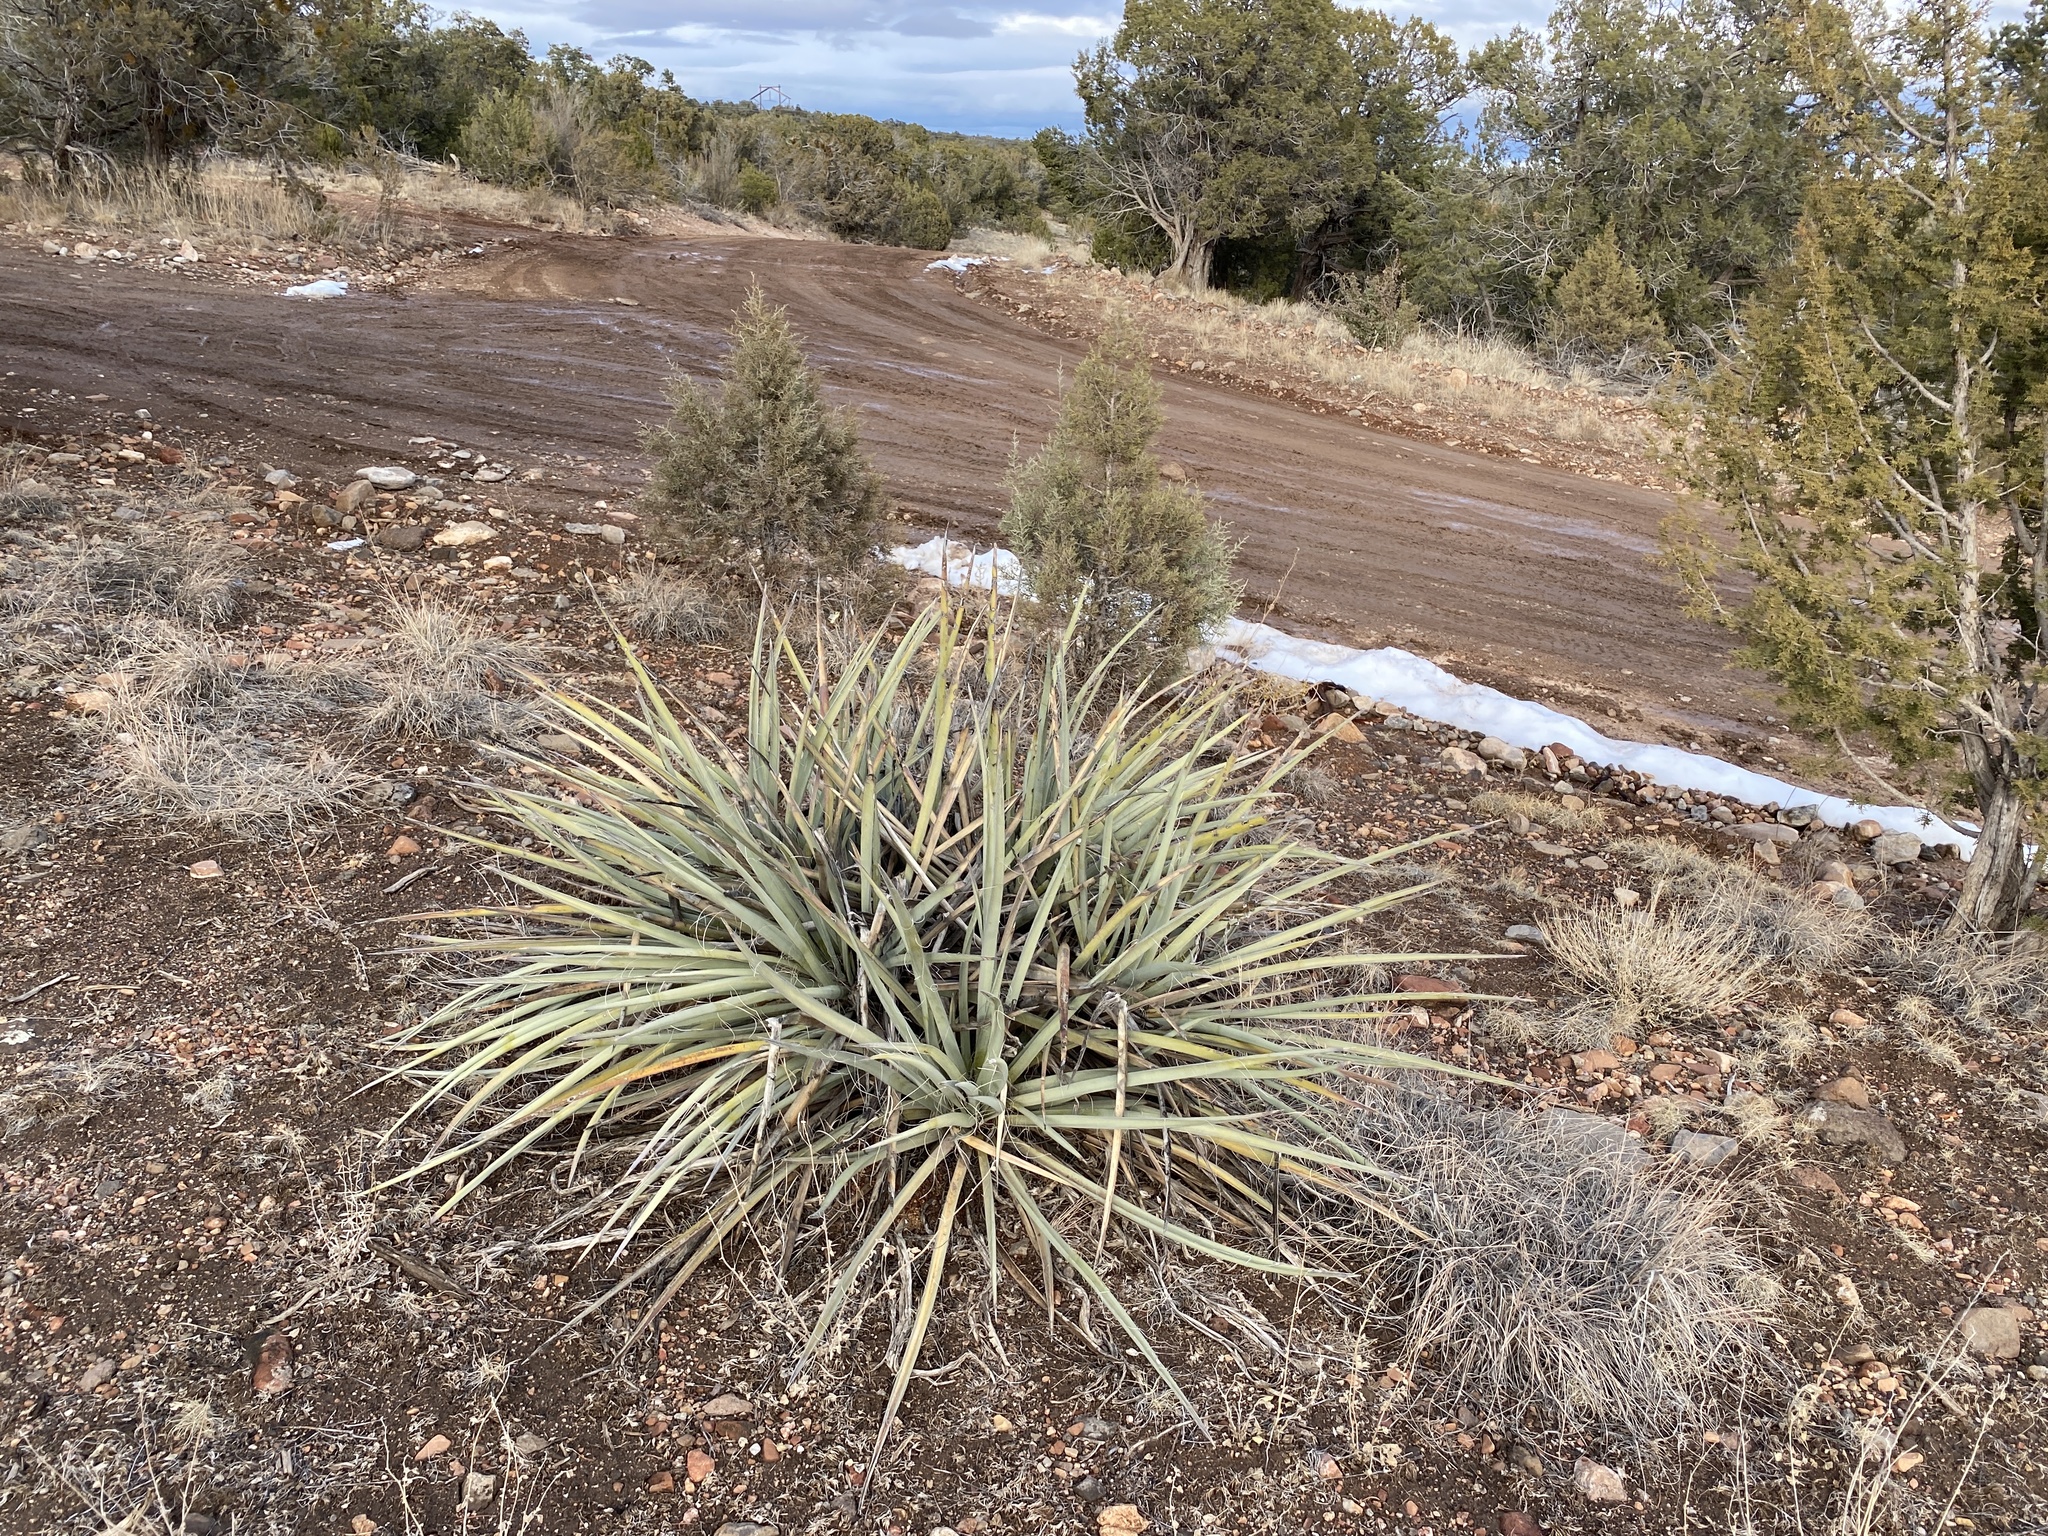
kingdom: Plantae
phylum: Tracheophyta
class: Liliopsida
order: Asparagales
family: Asparagaceae
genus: Yucca
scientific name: Yucca baccata
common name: Banana yucca
